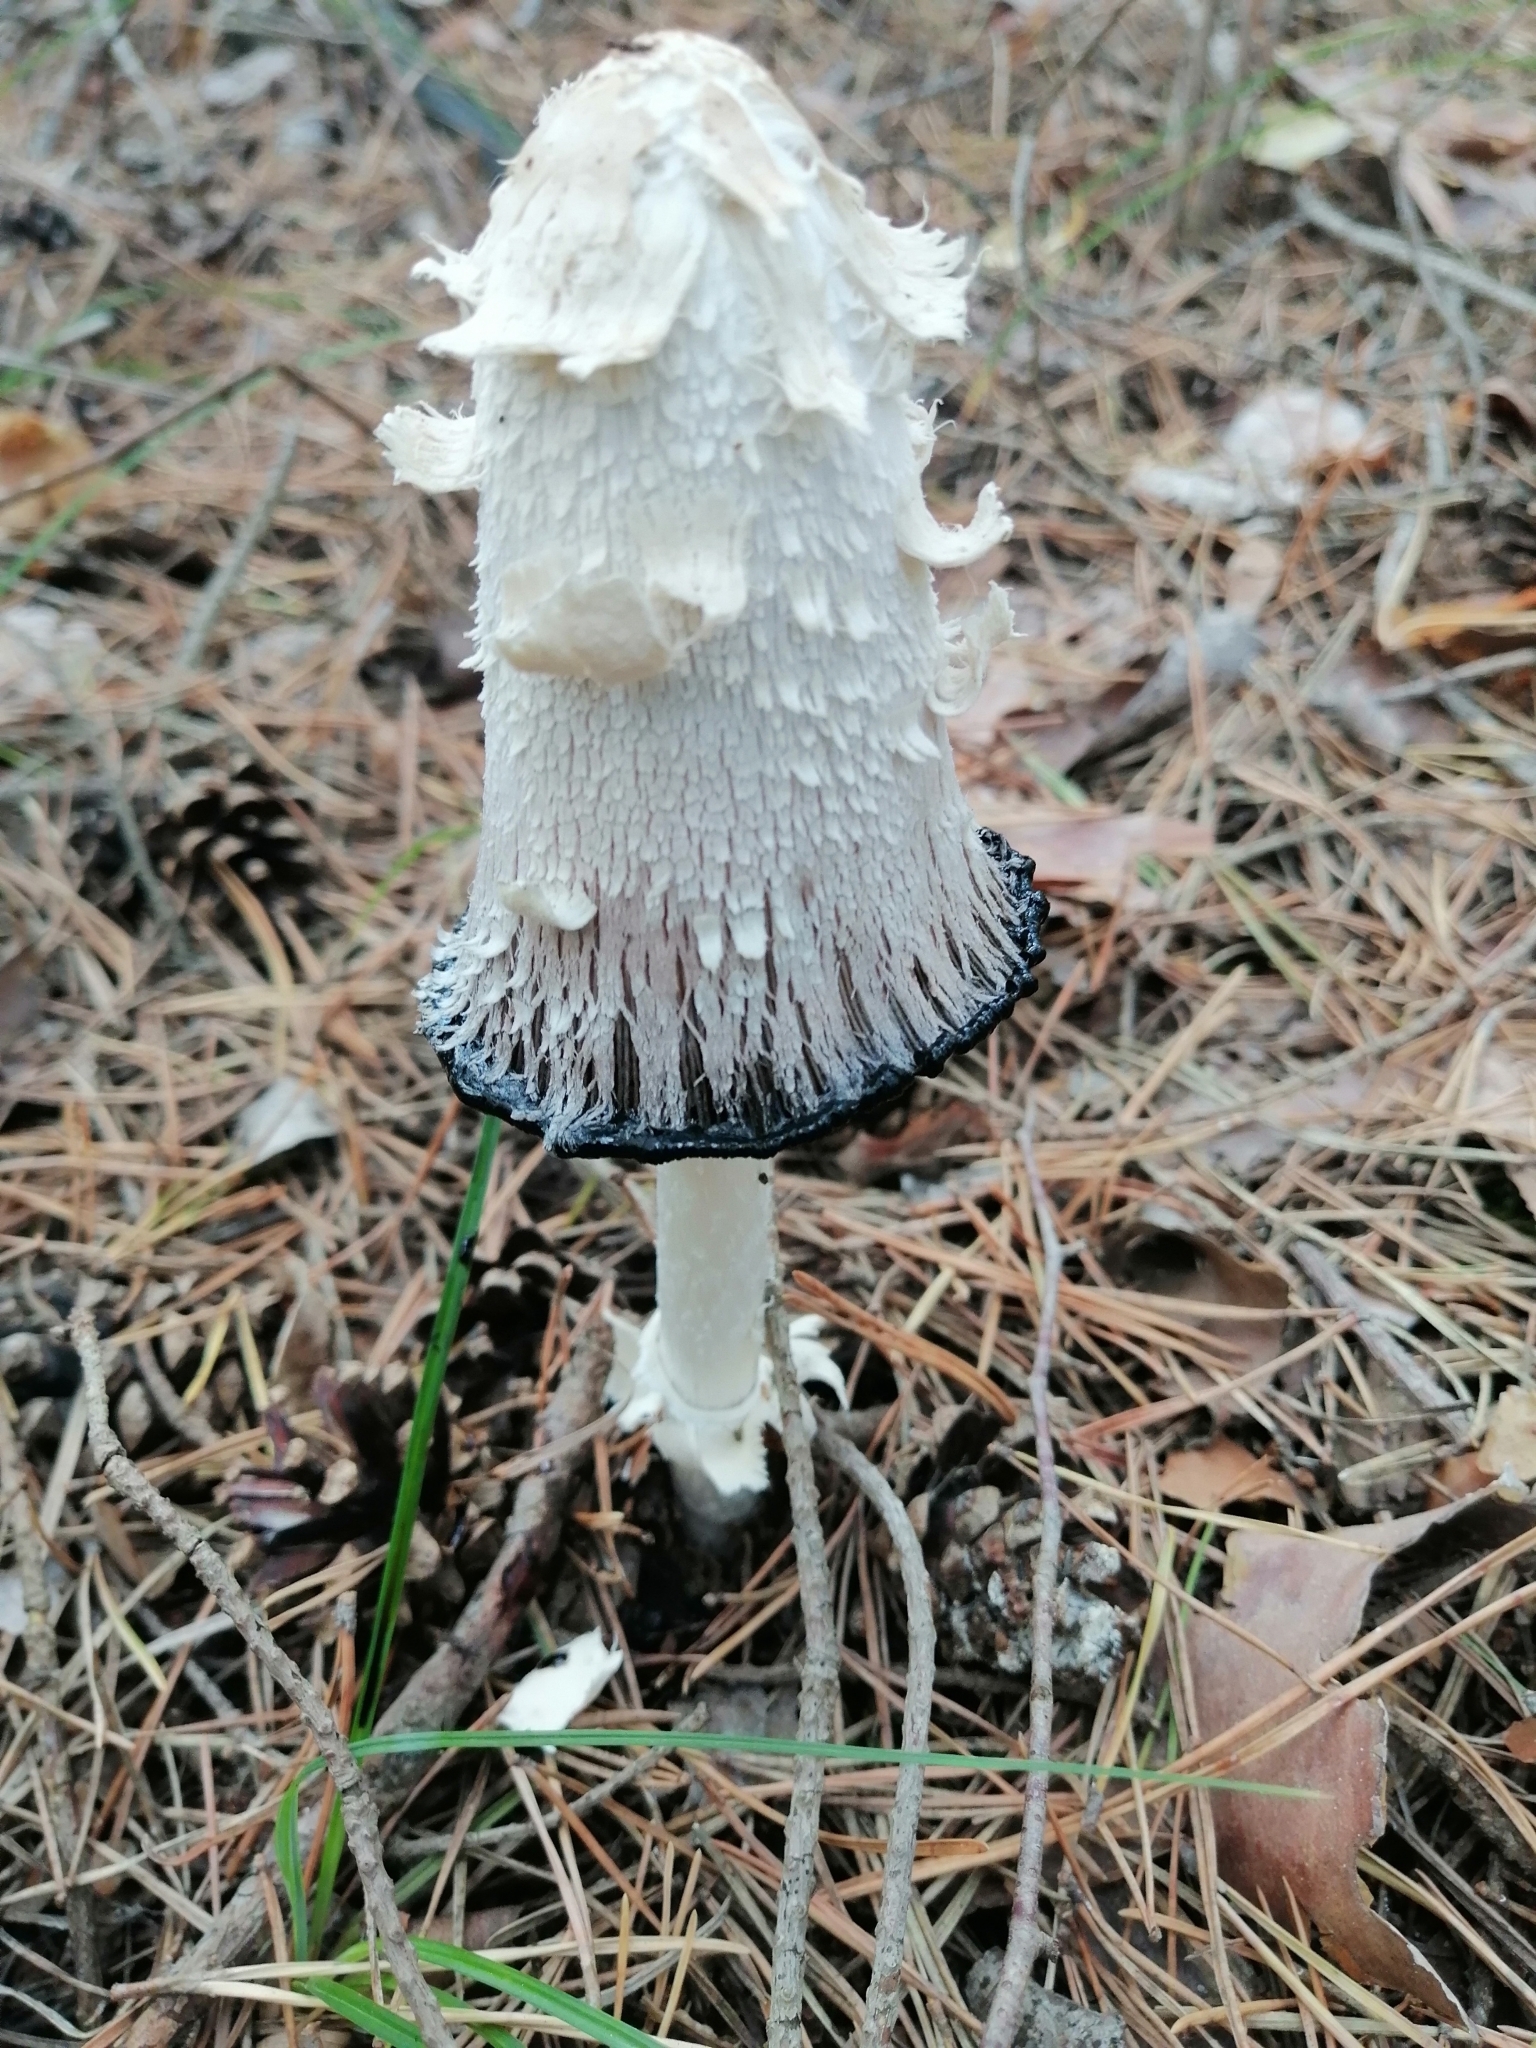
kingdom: Fungi
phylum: Basidiomycota
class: Agaricomycetes
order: Agaricales
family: Agaricaceae
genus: Coprinus
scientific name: Coprinus levisticolens
